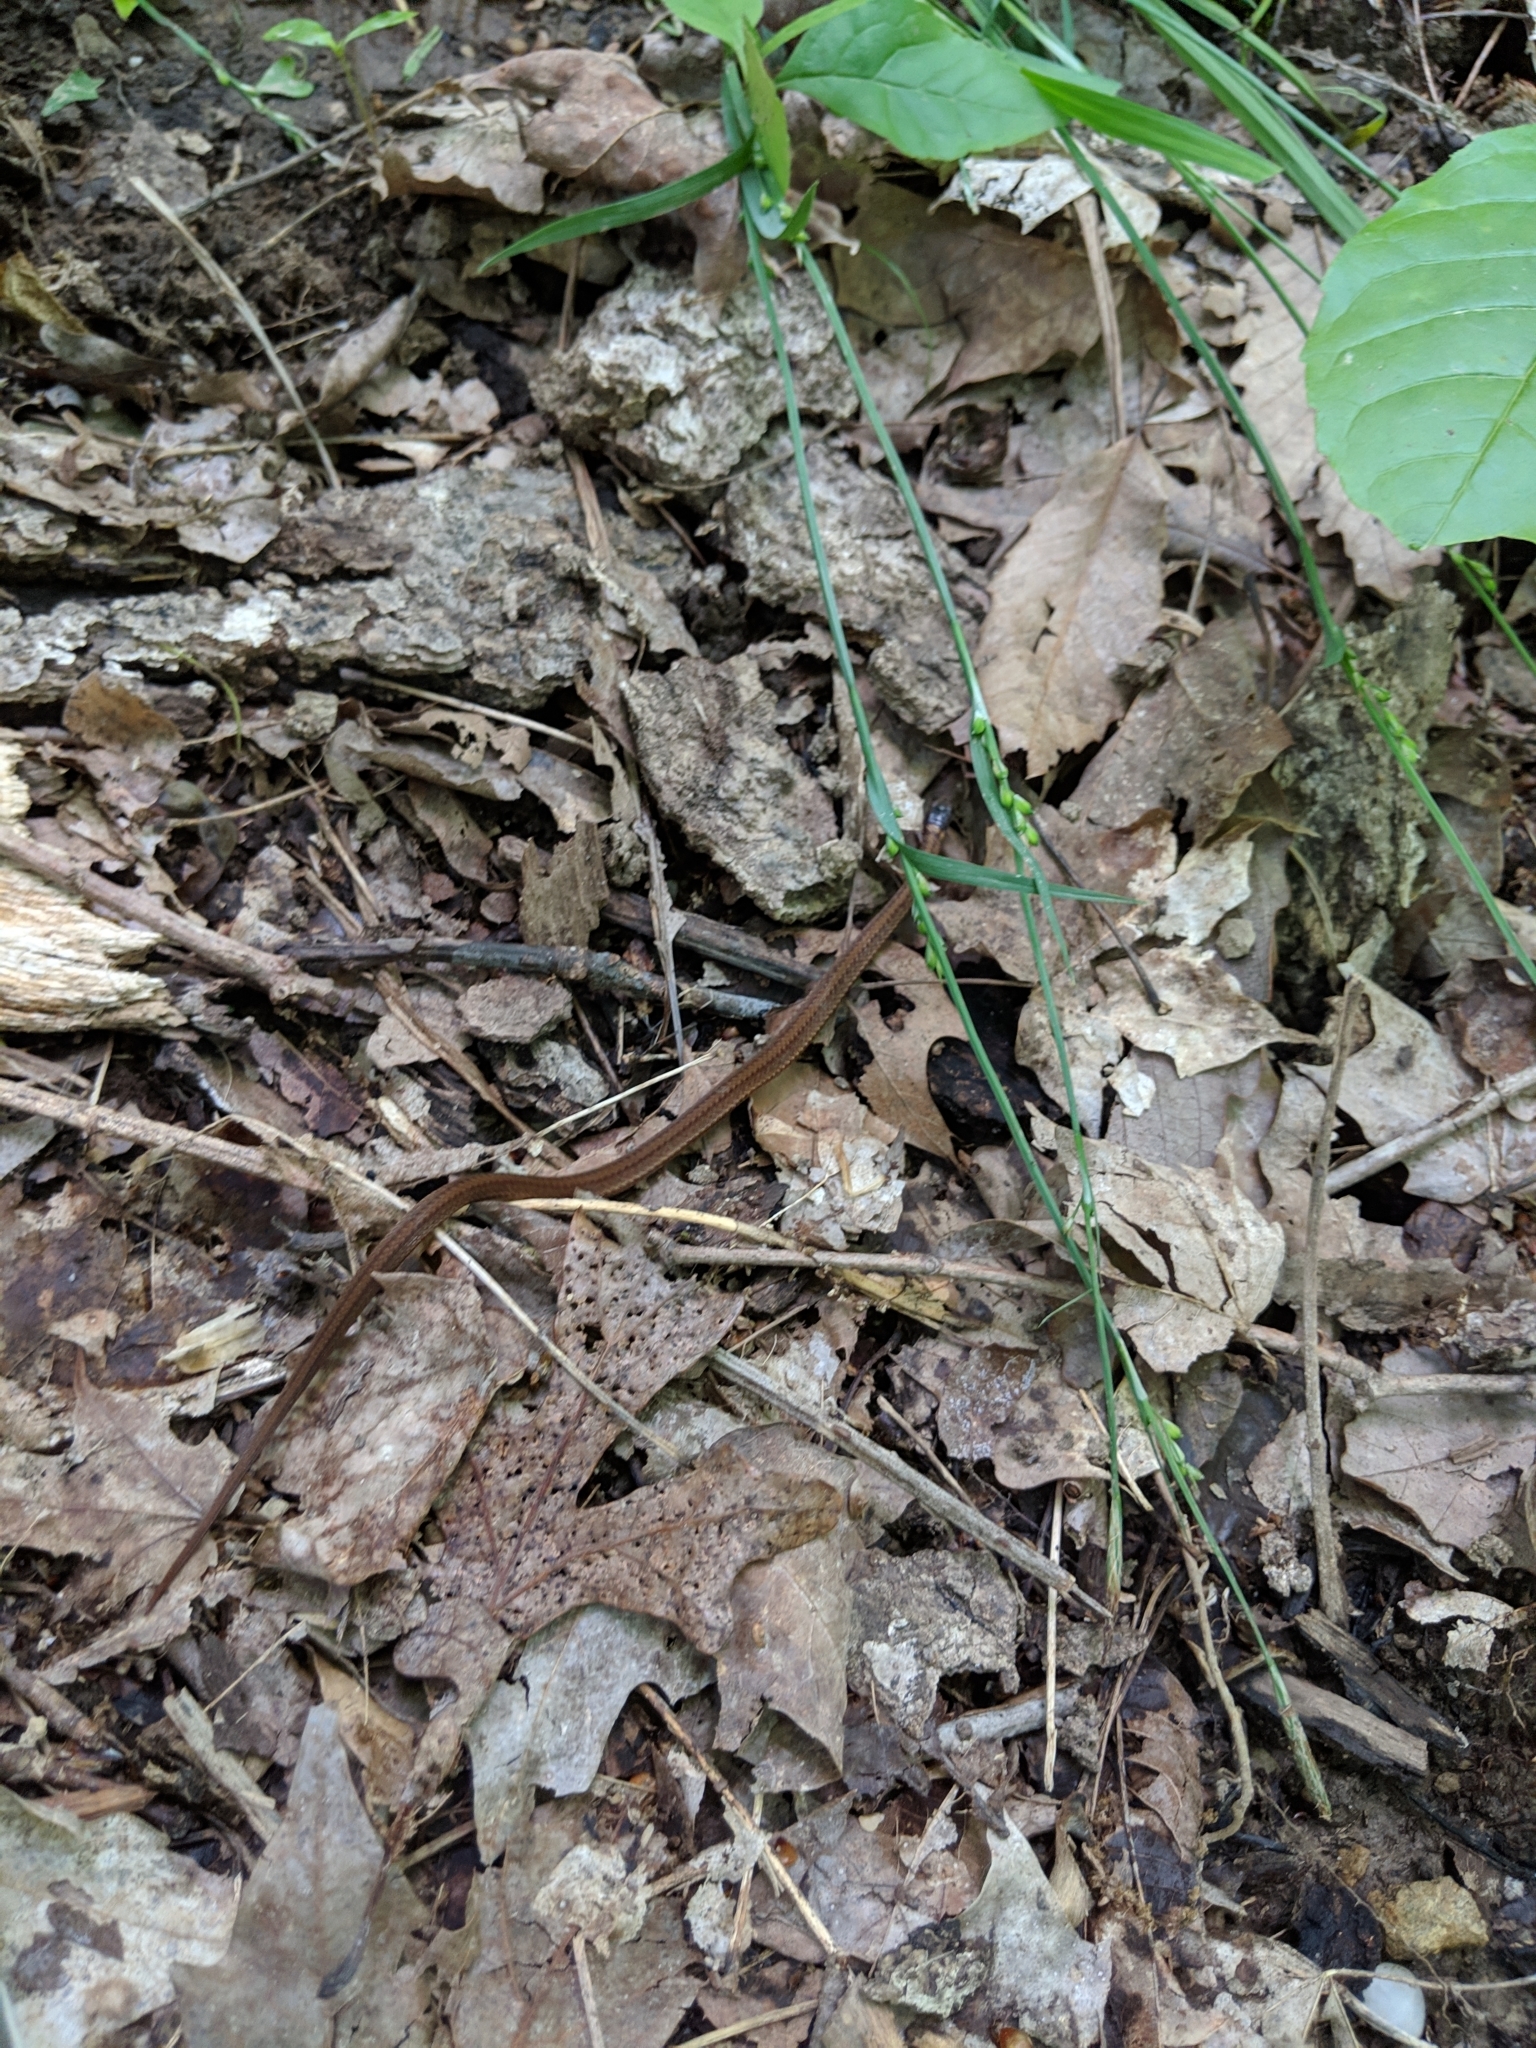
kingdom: Animalia
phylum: Chordata
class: Squamata
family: Colubridae
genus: Storeria
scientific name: Storeria occipitomaculata
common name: Redbelly snake
